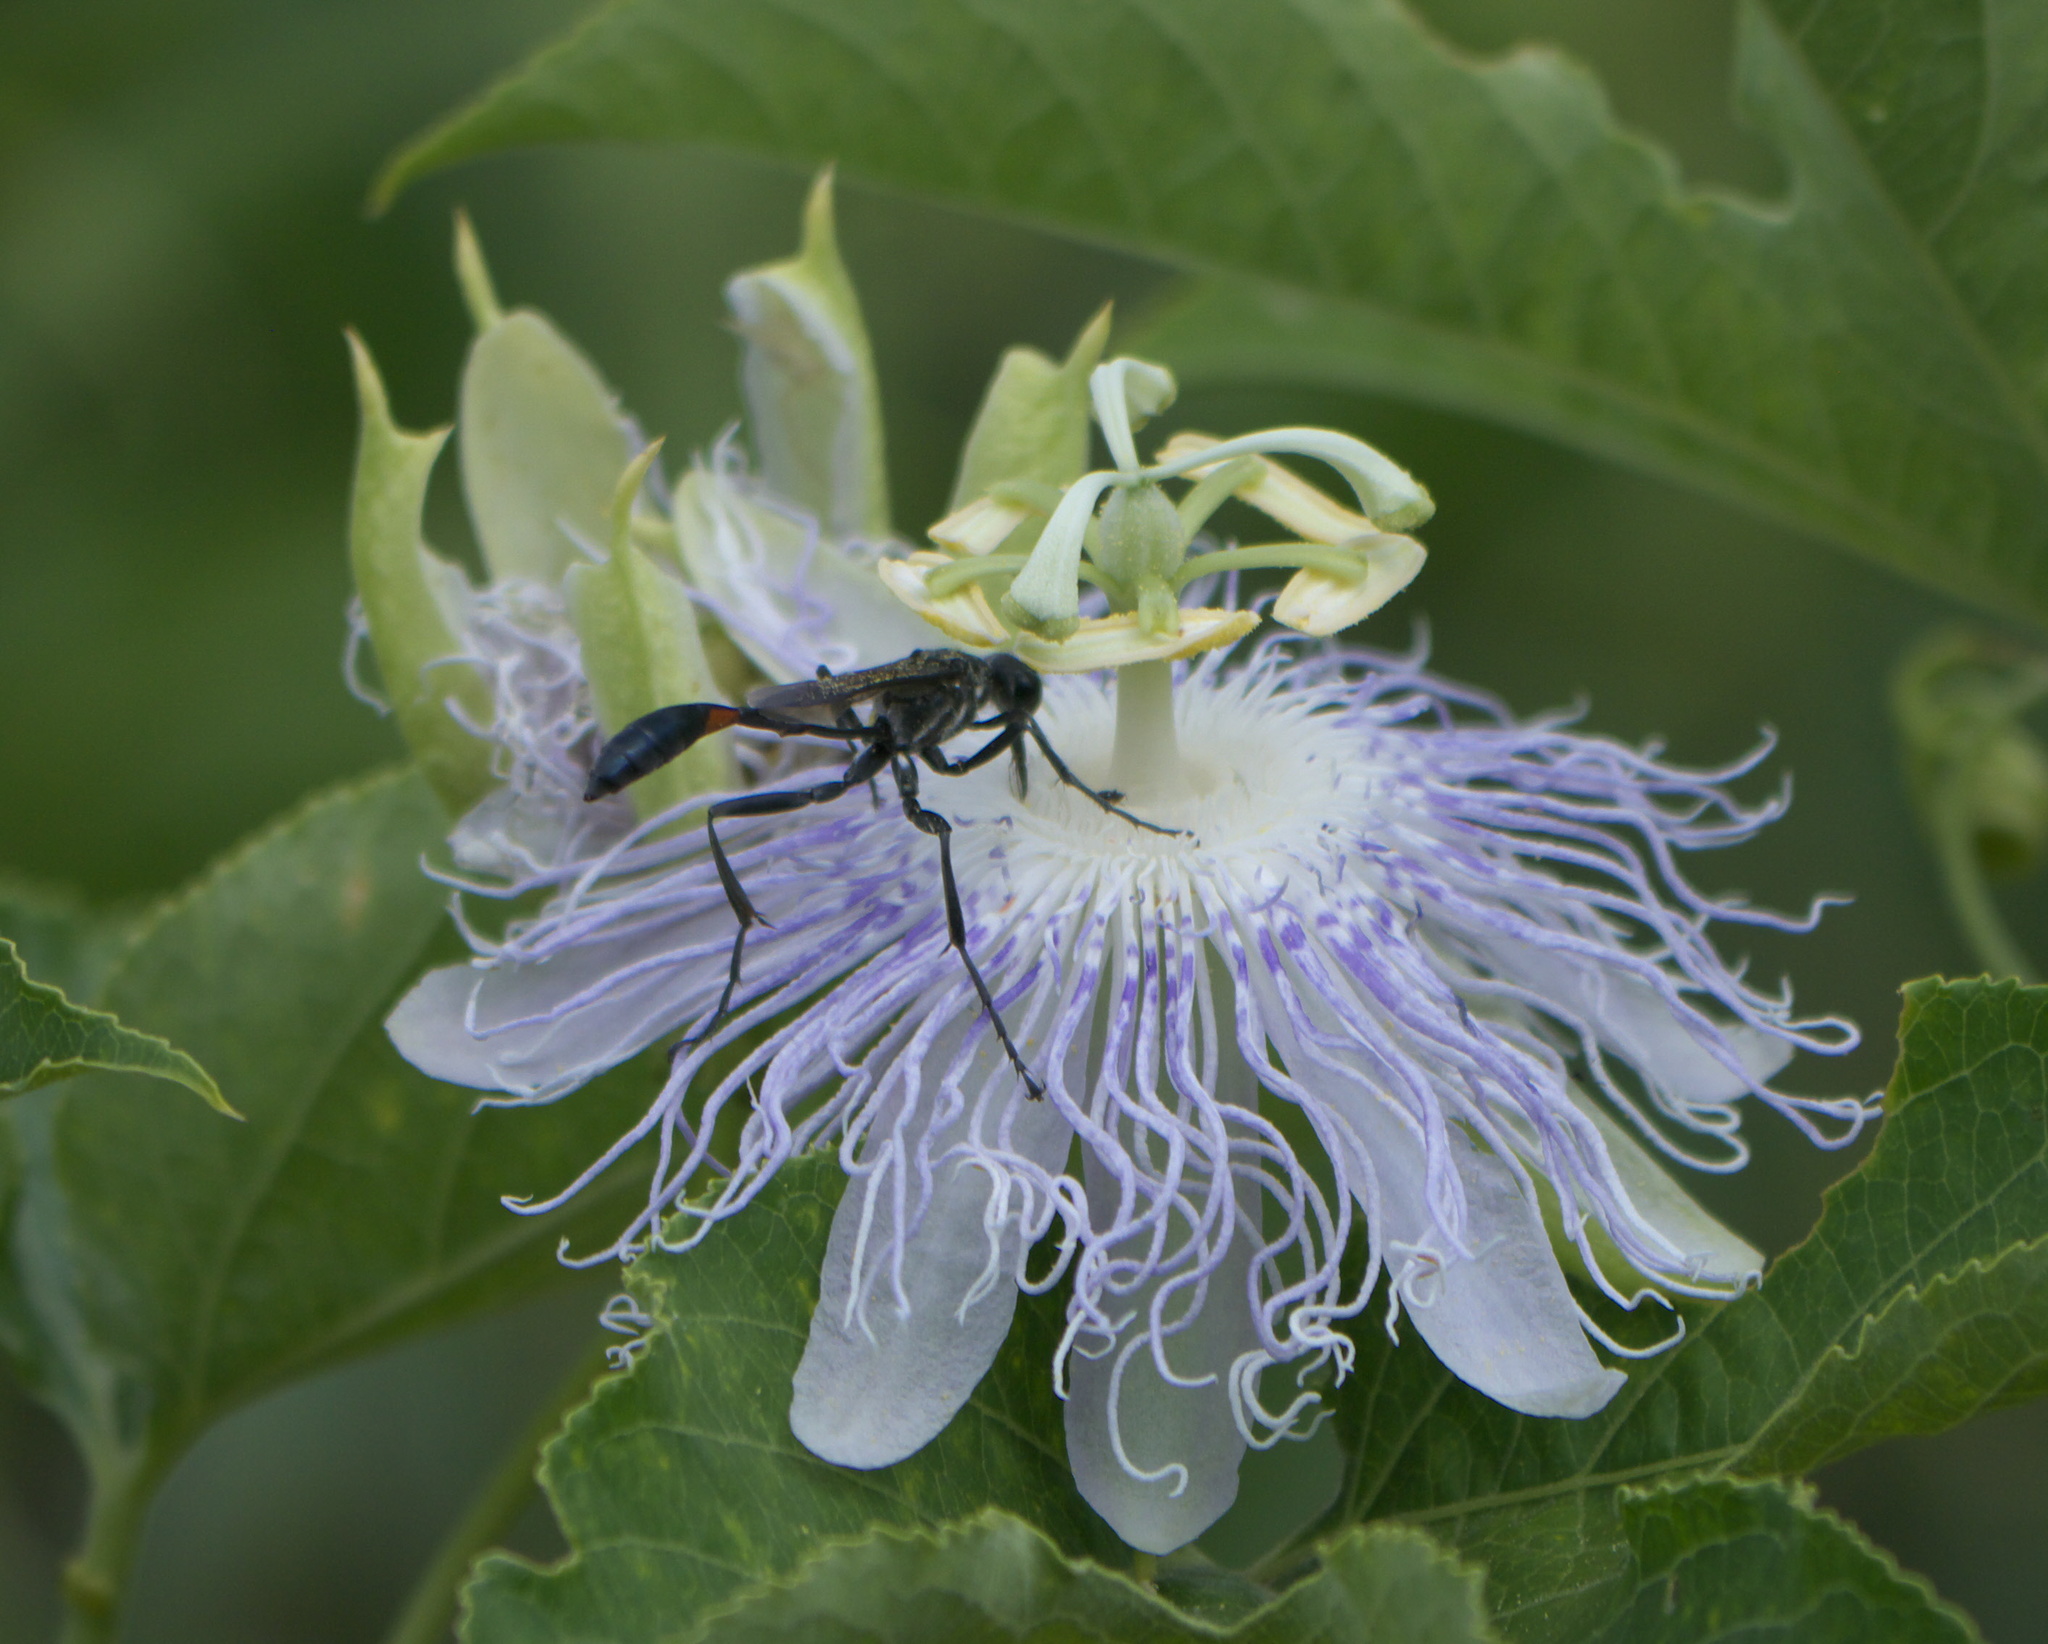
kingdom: Plantae
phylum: Tracheophyta
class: Magnoliopsida
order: Malpighiales
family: Passifloraceae
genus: Passiflora
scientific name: Passiflora incarnata
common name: Apricot-vine
